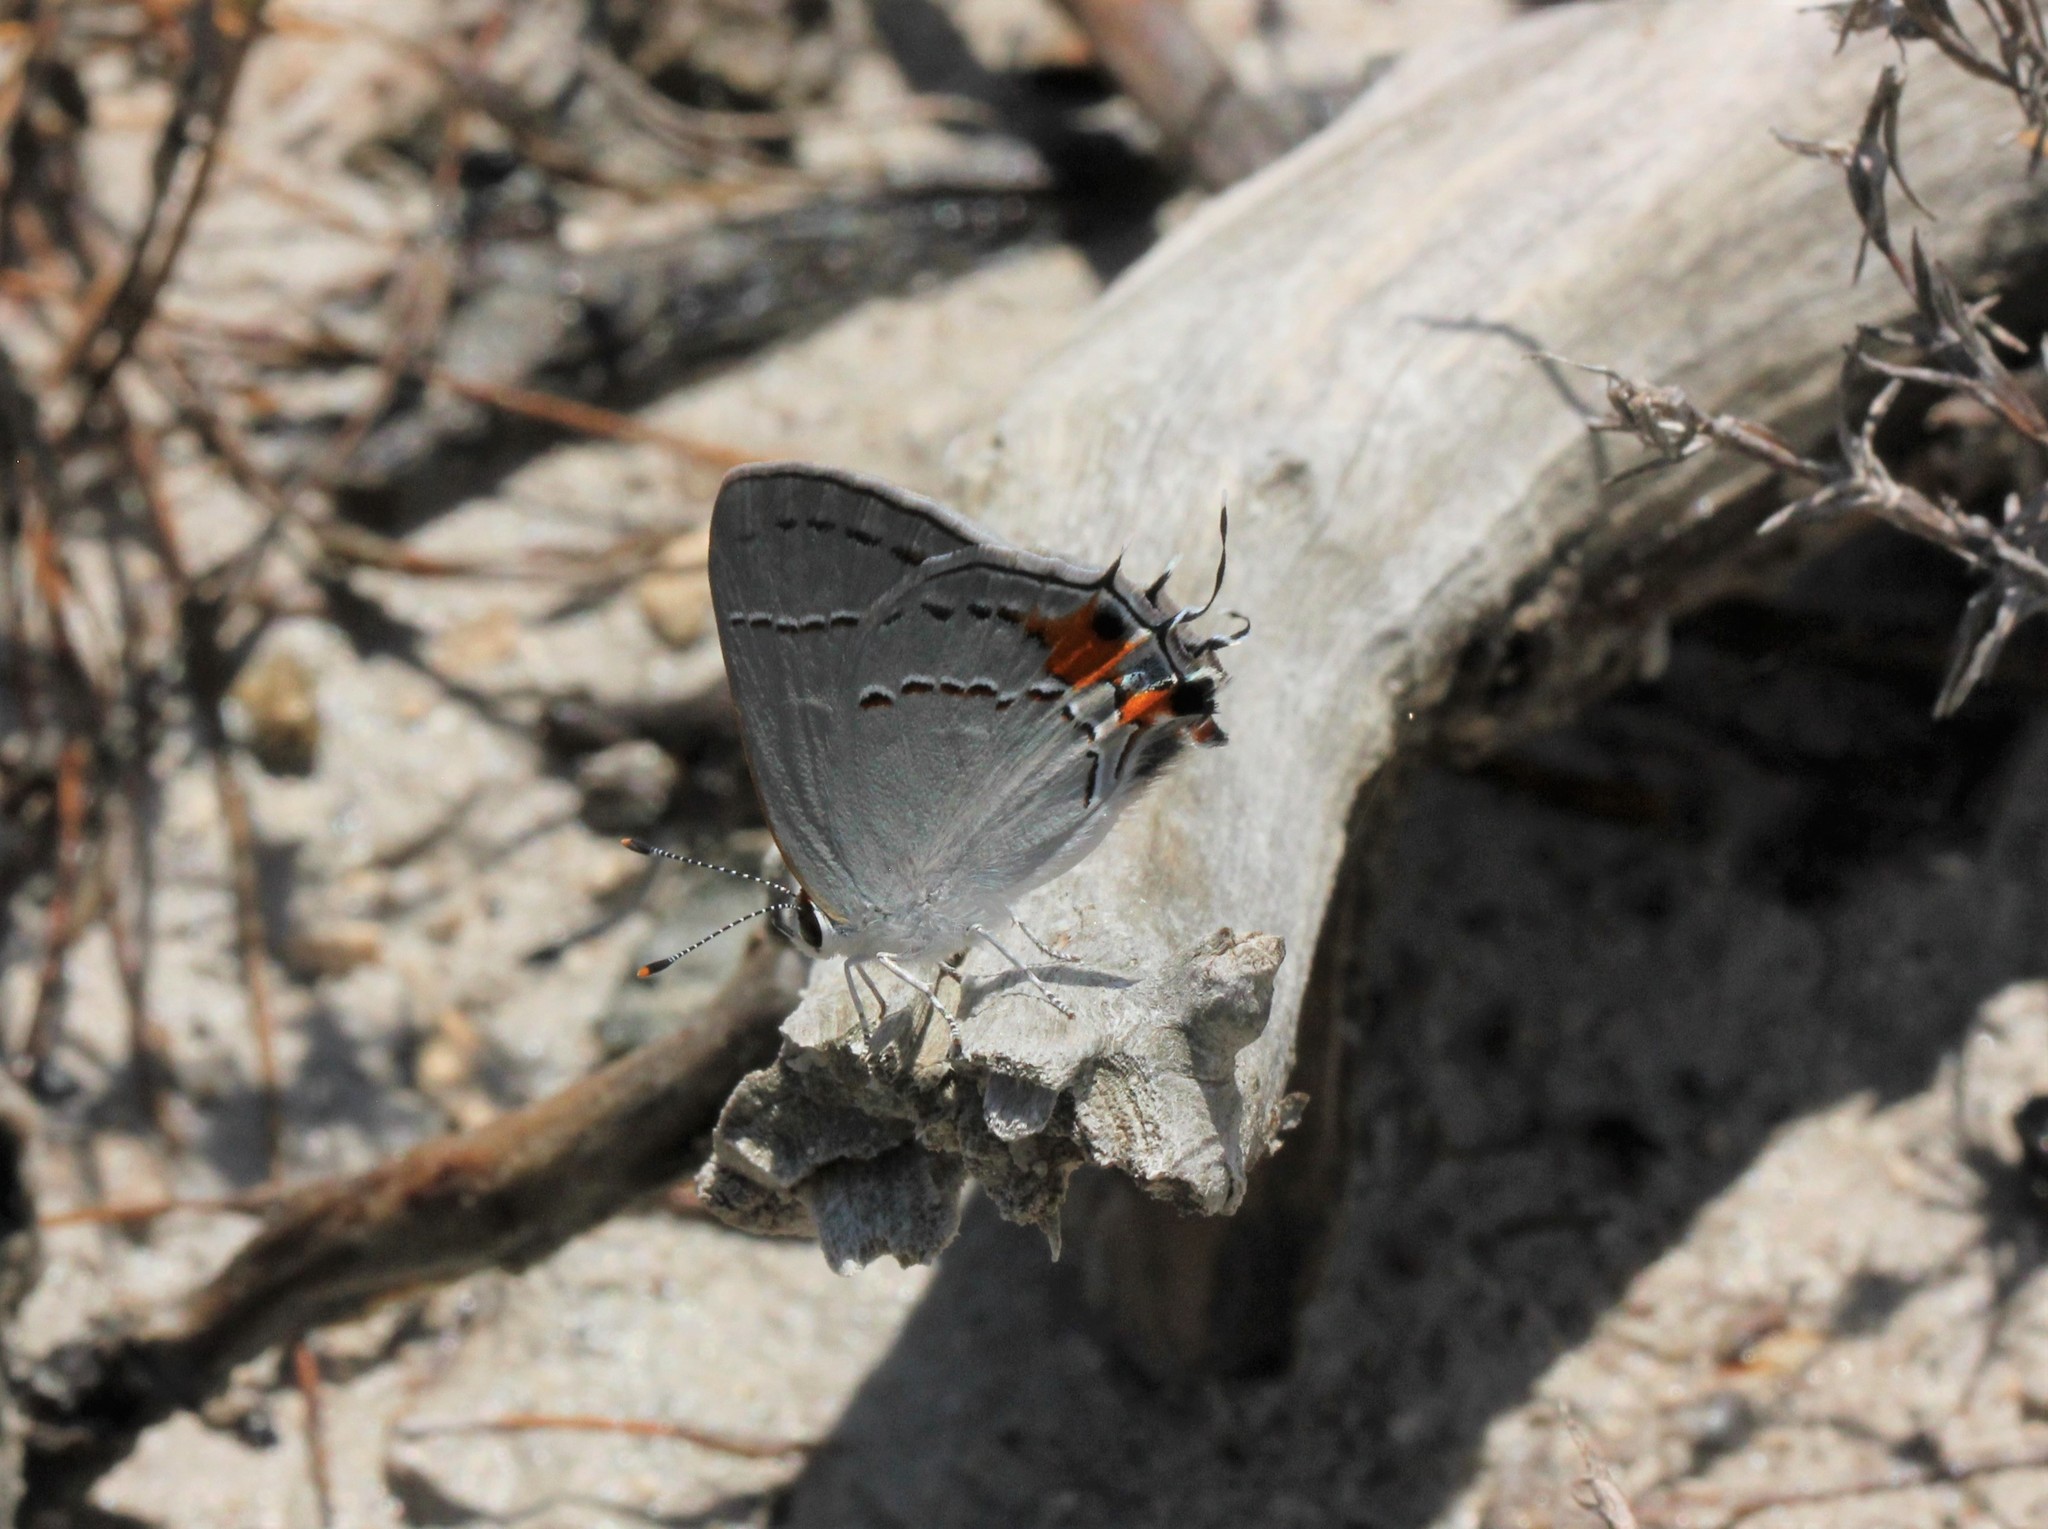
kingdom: Animalia
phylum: Arthropoda
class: Insecta
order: Lepidoptera
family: Lycaenidae
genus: Strymon
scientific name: Strymon melinus
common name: Gray hairstreak
